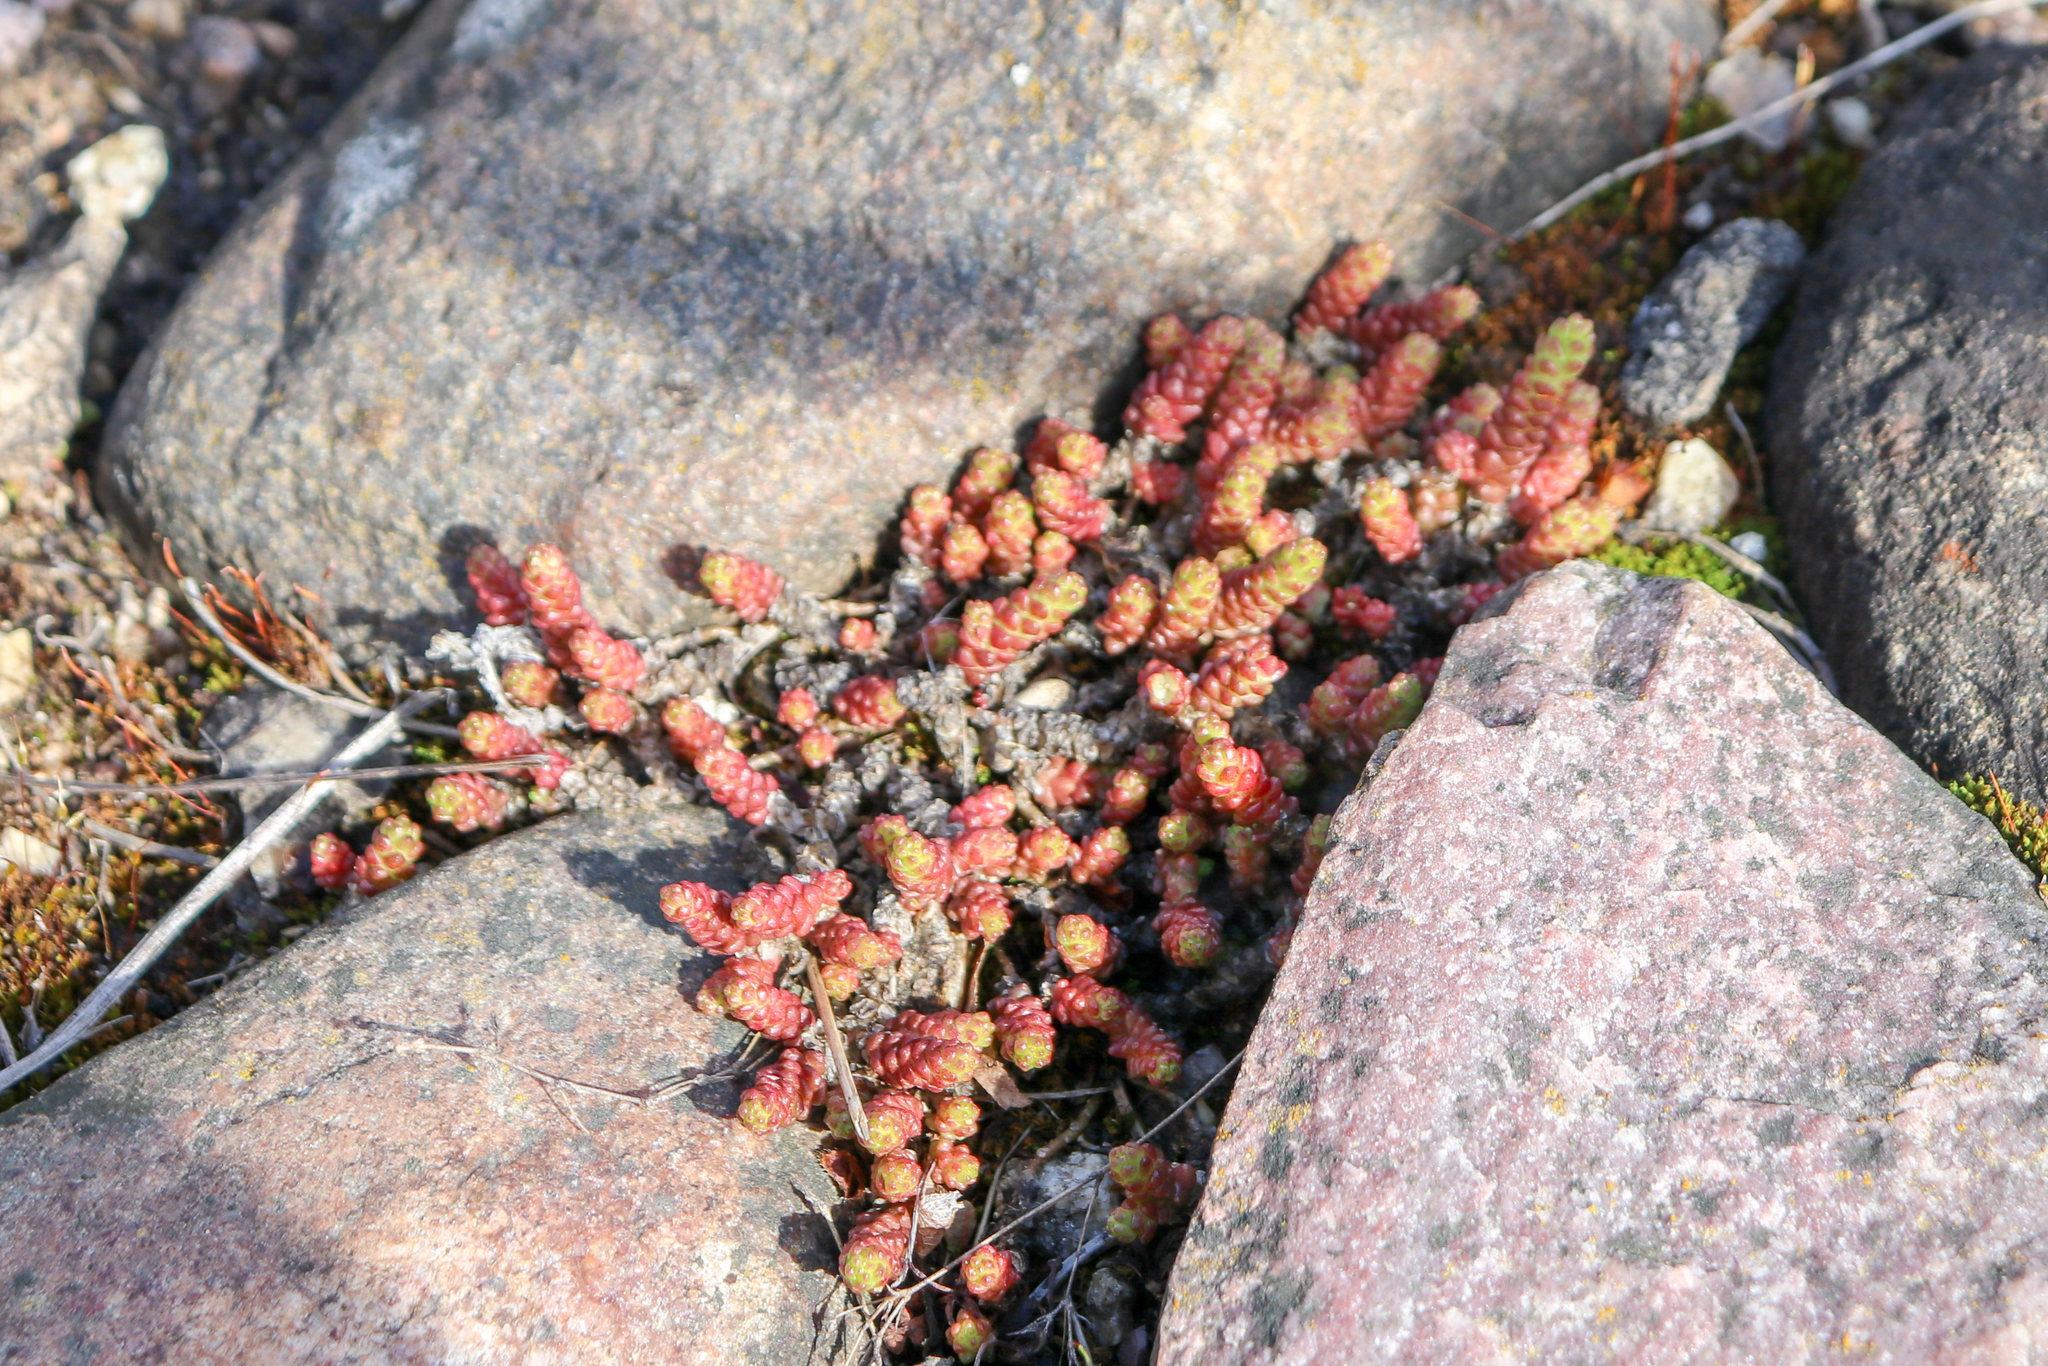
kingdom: Plantae
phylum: Tracheophyta
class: Magnoliopsida
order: Saxifragales
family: Crassulaceae
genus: Sedum
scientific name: Sedum acre
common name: Biting stonecrop
